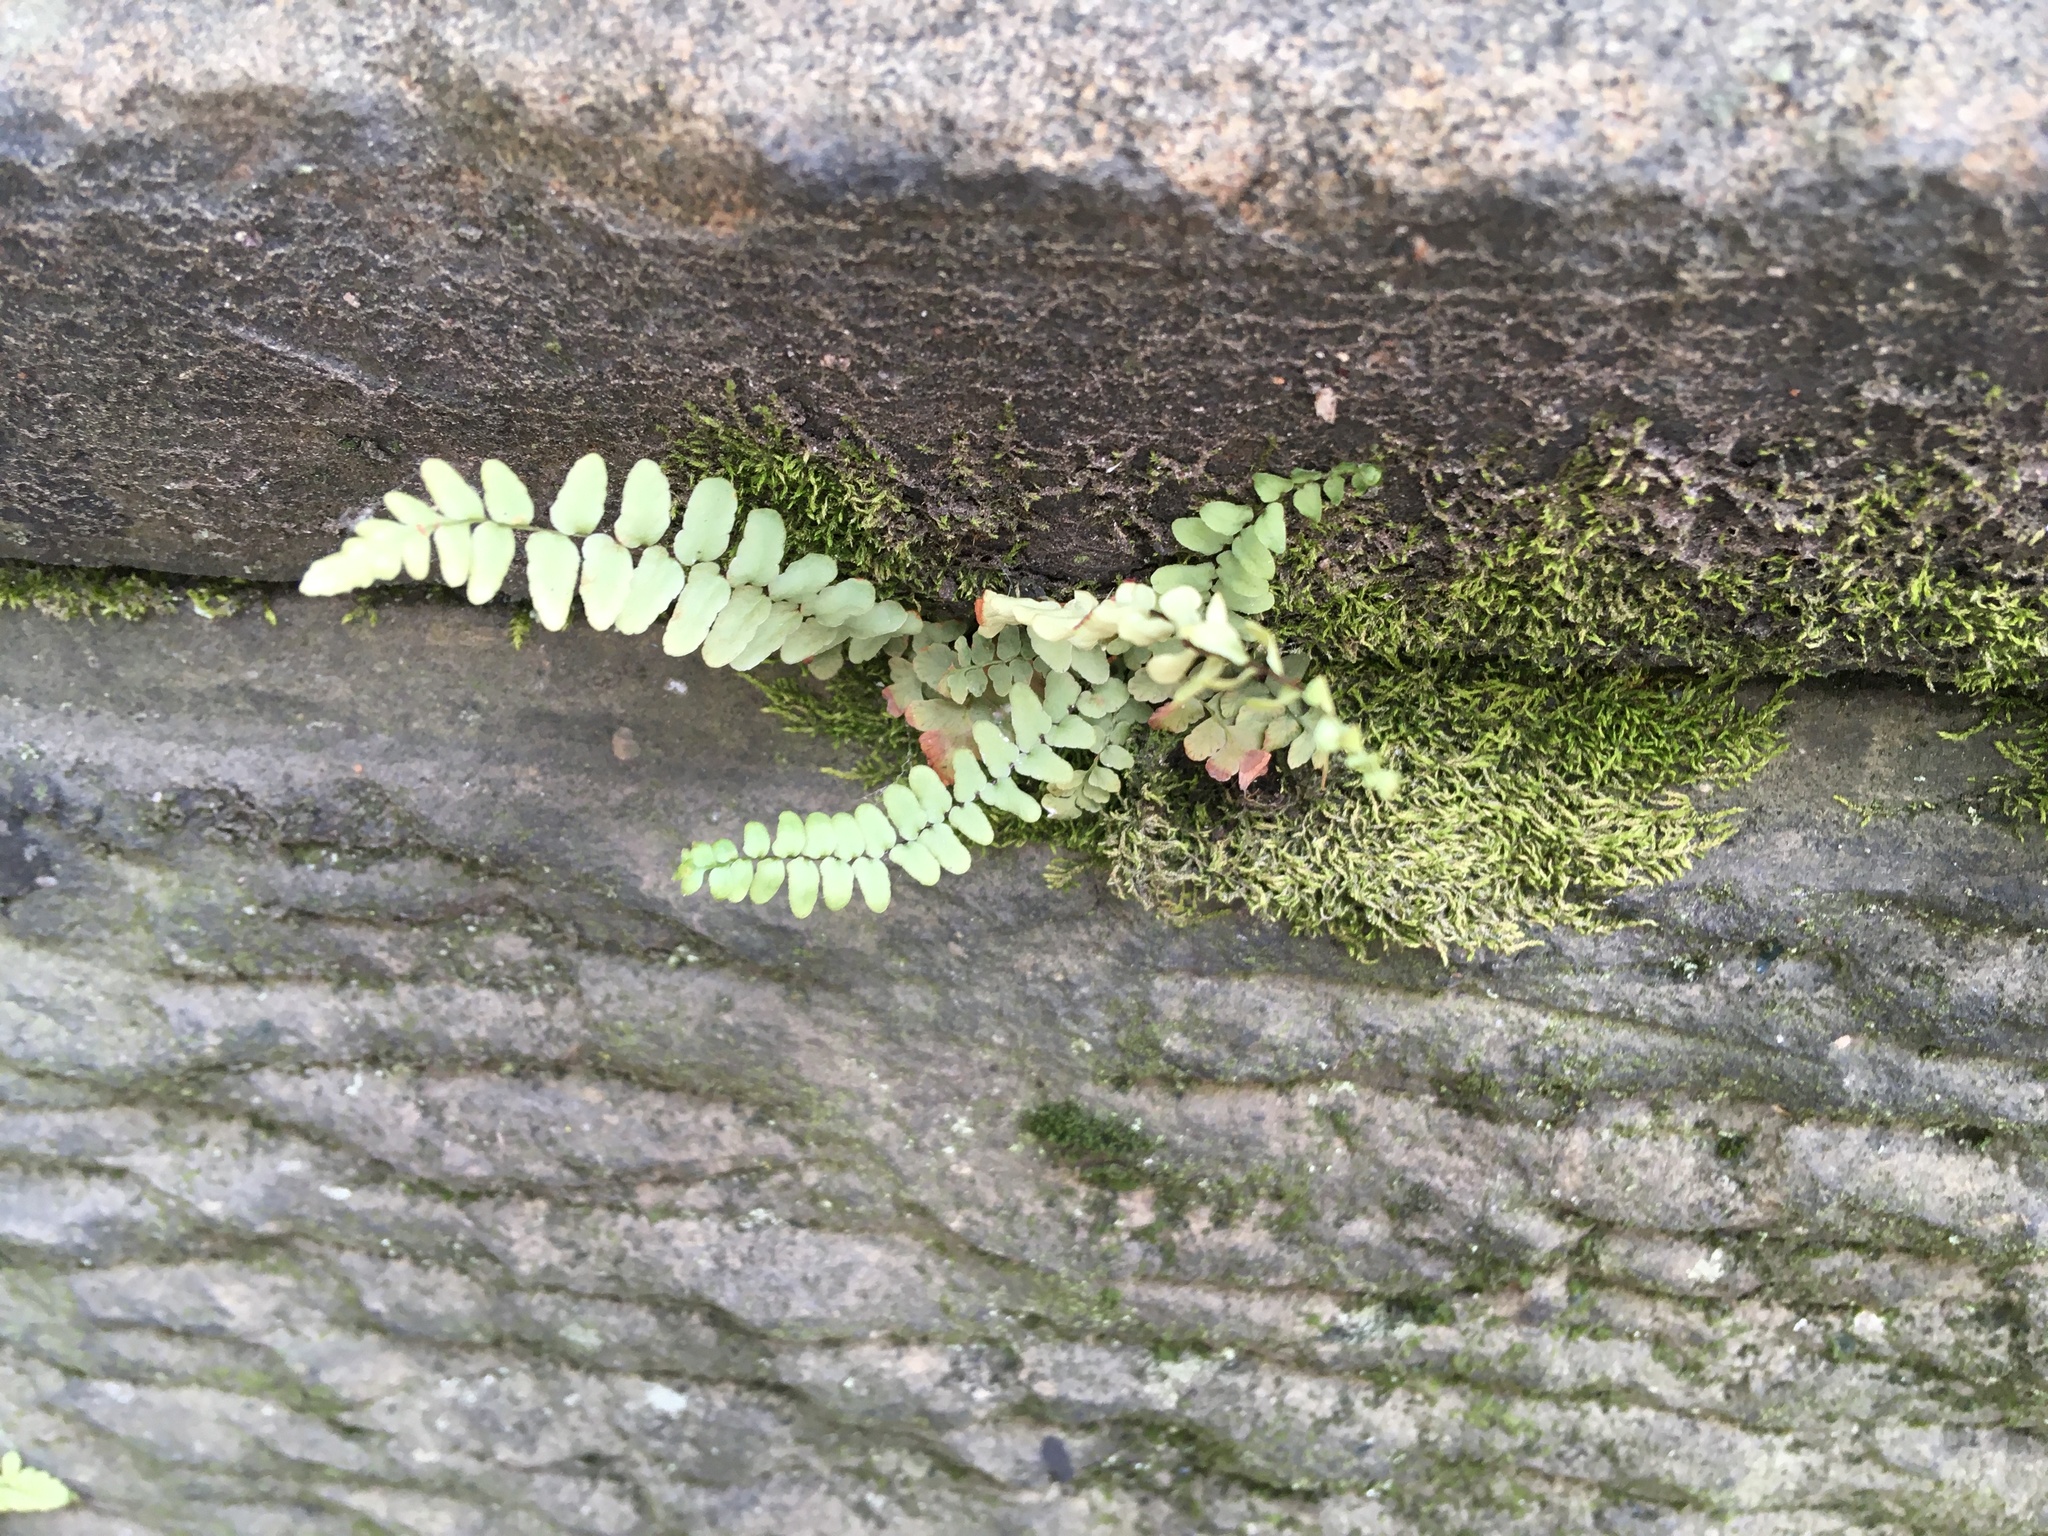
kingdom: Plantae
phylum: Tracheophyta
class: Polypodiopsida
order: Polypodiales
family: Aspleniaceae
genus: Asplenium
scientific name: Asplenium platyneuron
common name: Ebony spleenwort
